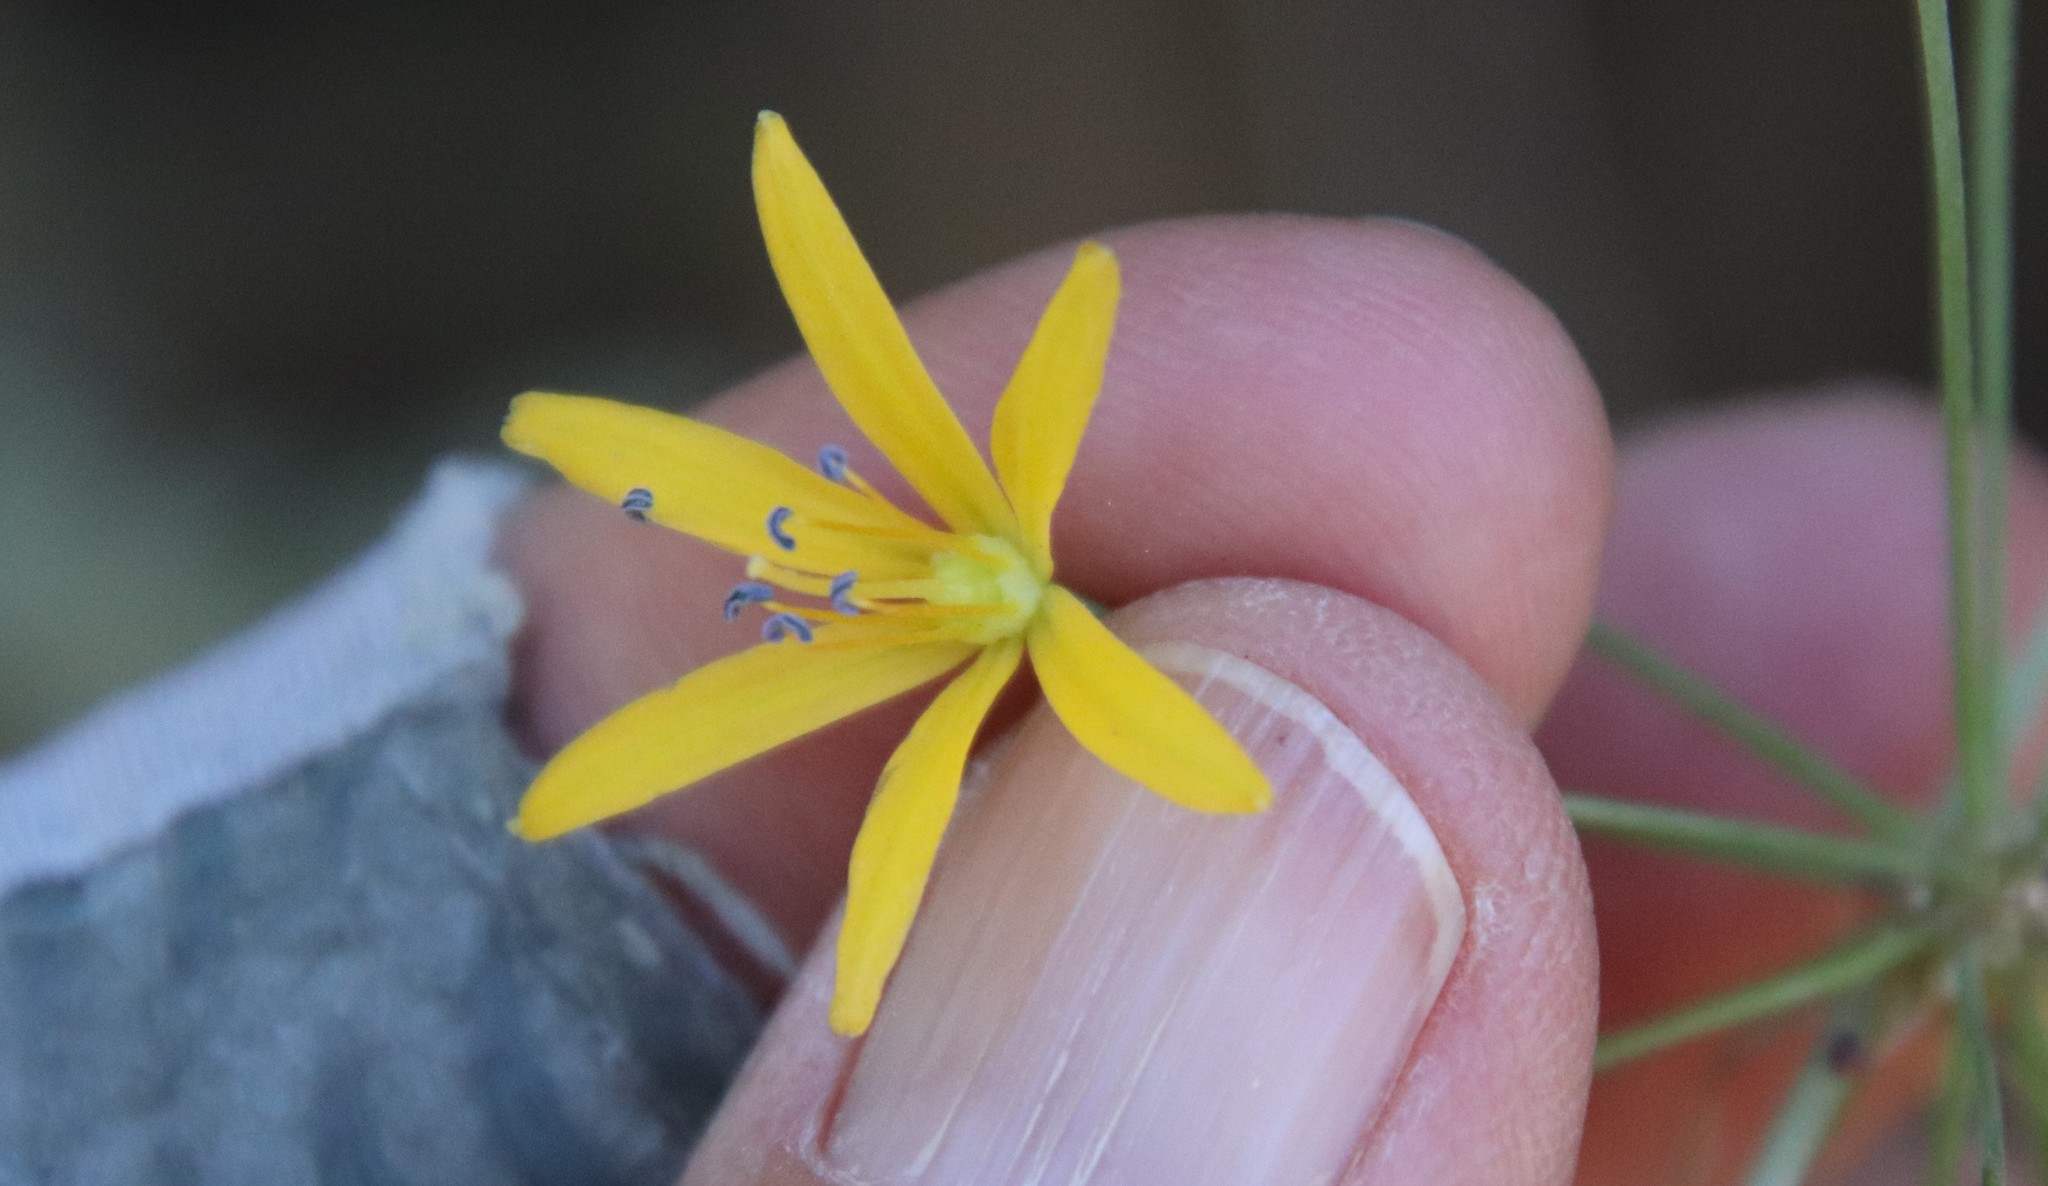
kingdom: Plantae
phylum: Tracheophyta
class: Liliopsida
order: Asparagales
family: Asparagaceae
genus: Bloomeria
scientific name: Bloomeria crocea
